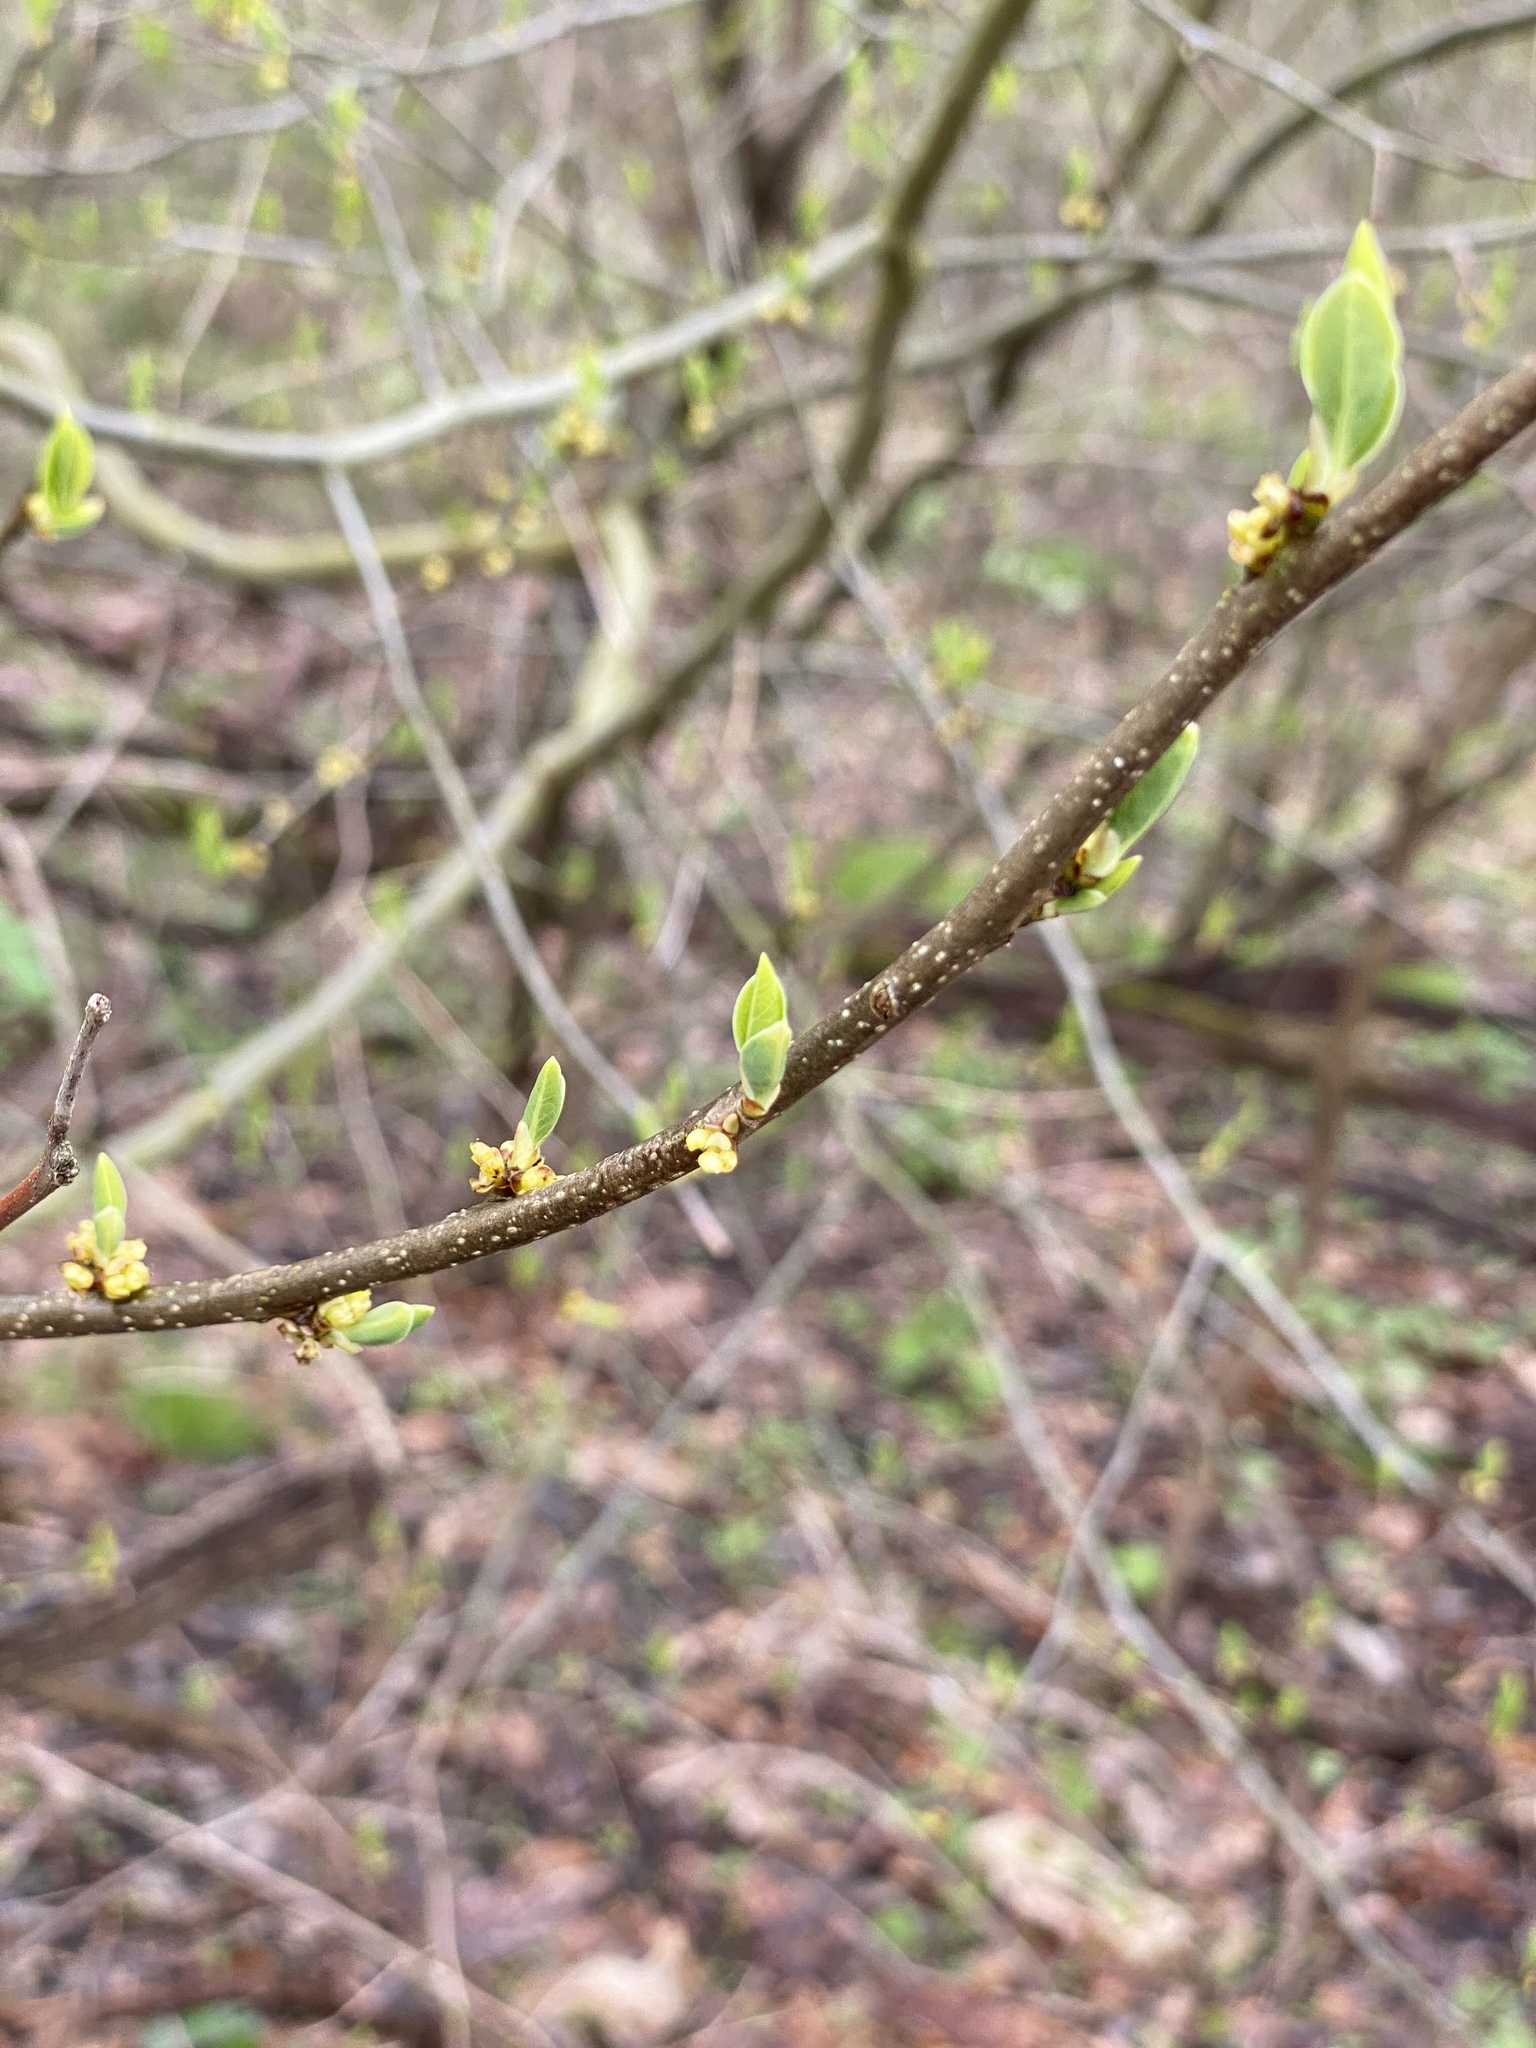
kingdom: Plantae
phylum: Tracheophyta
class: Magnoliopsida
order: Laurales
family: Lauraceae
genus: Lindera
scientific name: Lindera benzoin
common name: Spicebush
